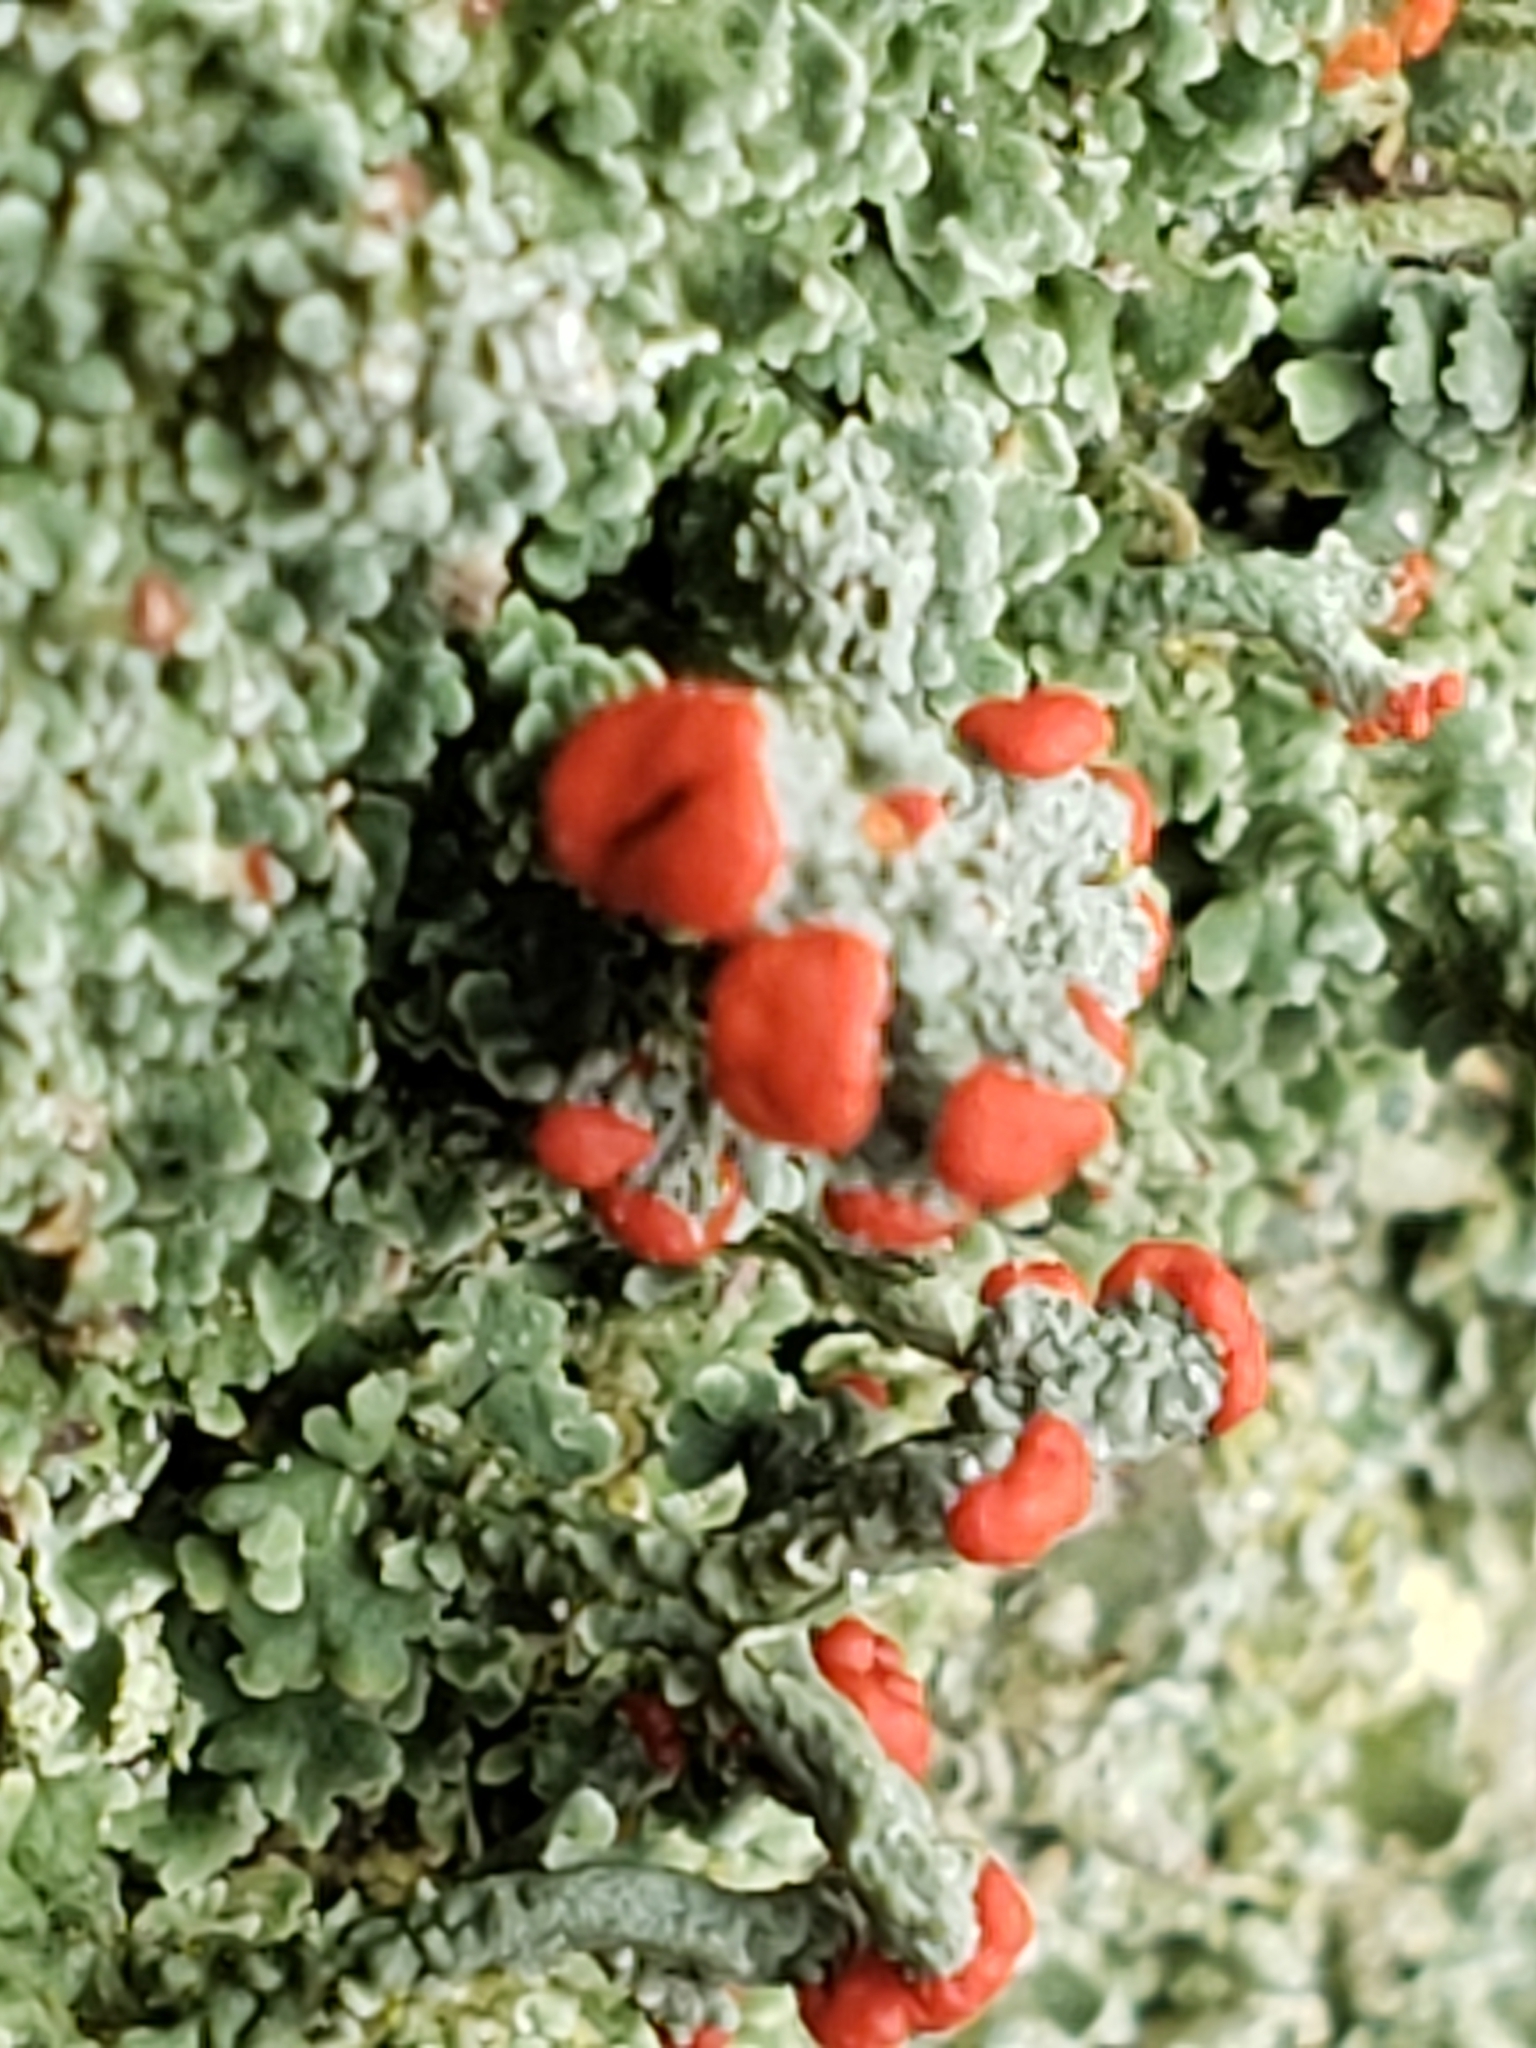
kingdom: Fungi
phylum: Ascomycota
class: Lecanoromycetes
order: Lecanorales
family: Cladoniaceae
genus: Cladonia
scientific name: Cladonia bellidiflora
